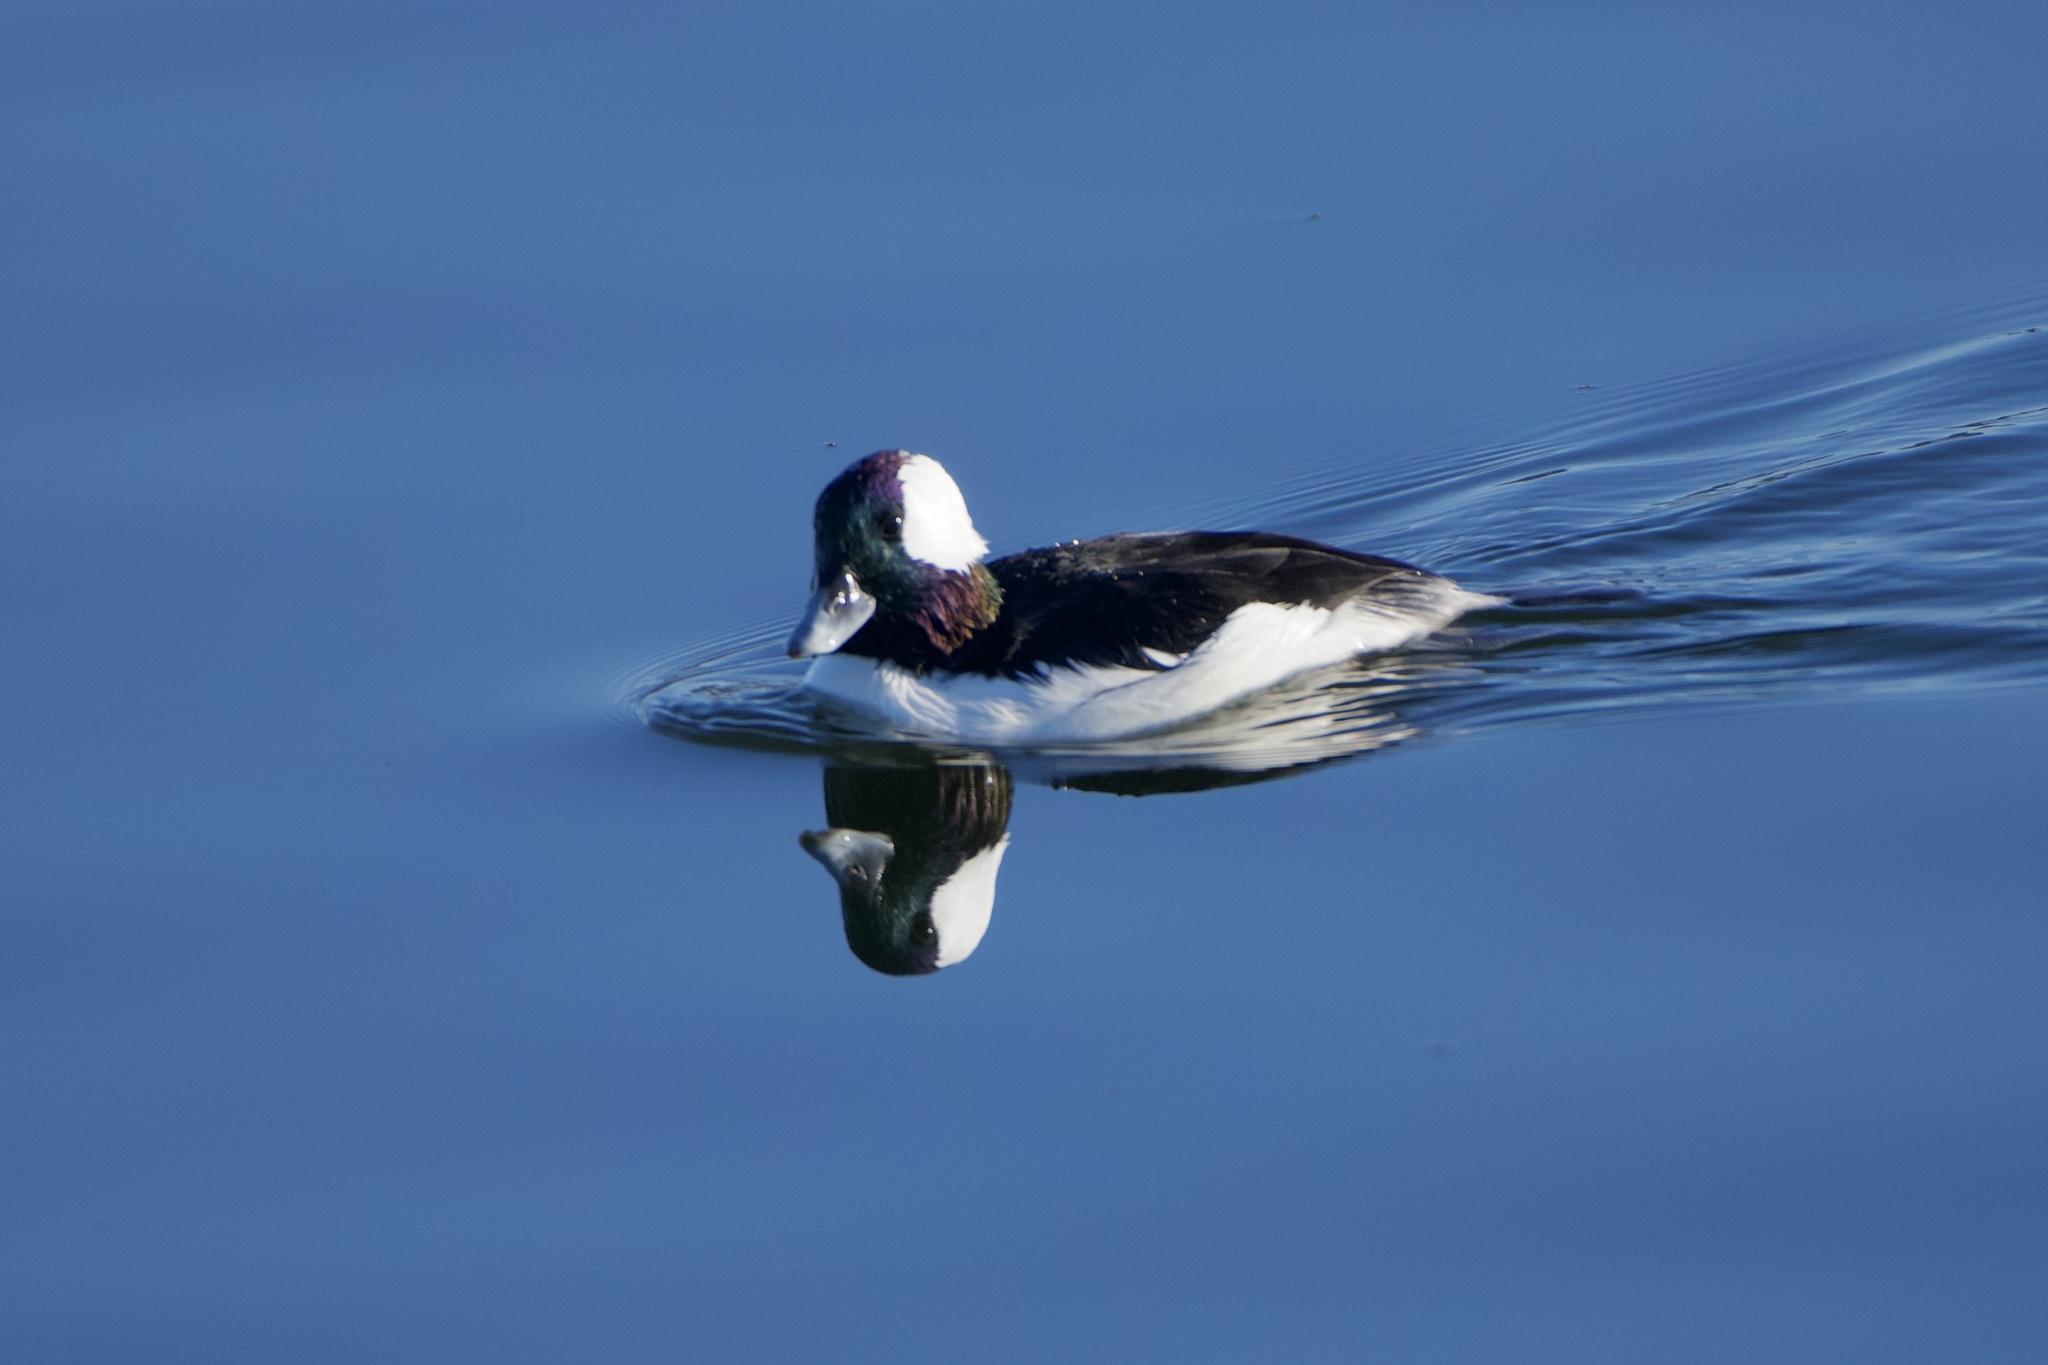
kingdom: Animalia
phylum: Chordata
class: Aves
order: Anseriformes
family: Anatidae
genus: Bucephala
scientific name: Bucephala albeola
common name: Bufflehead
